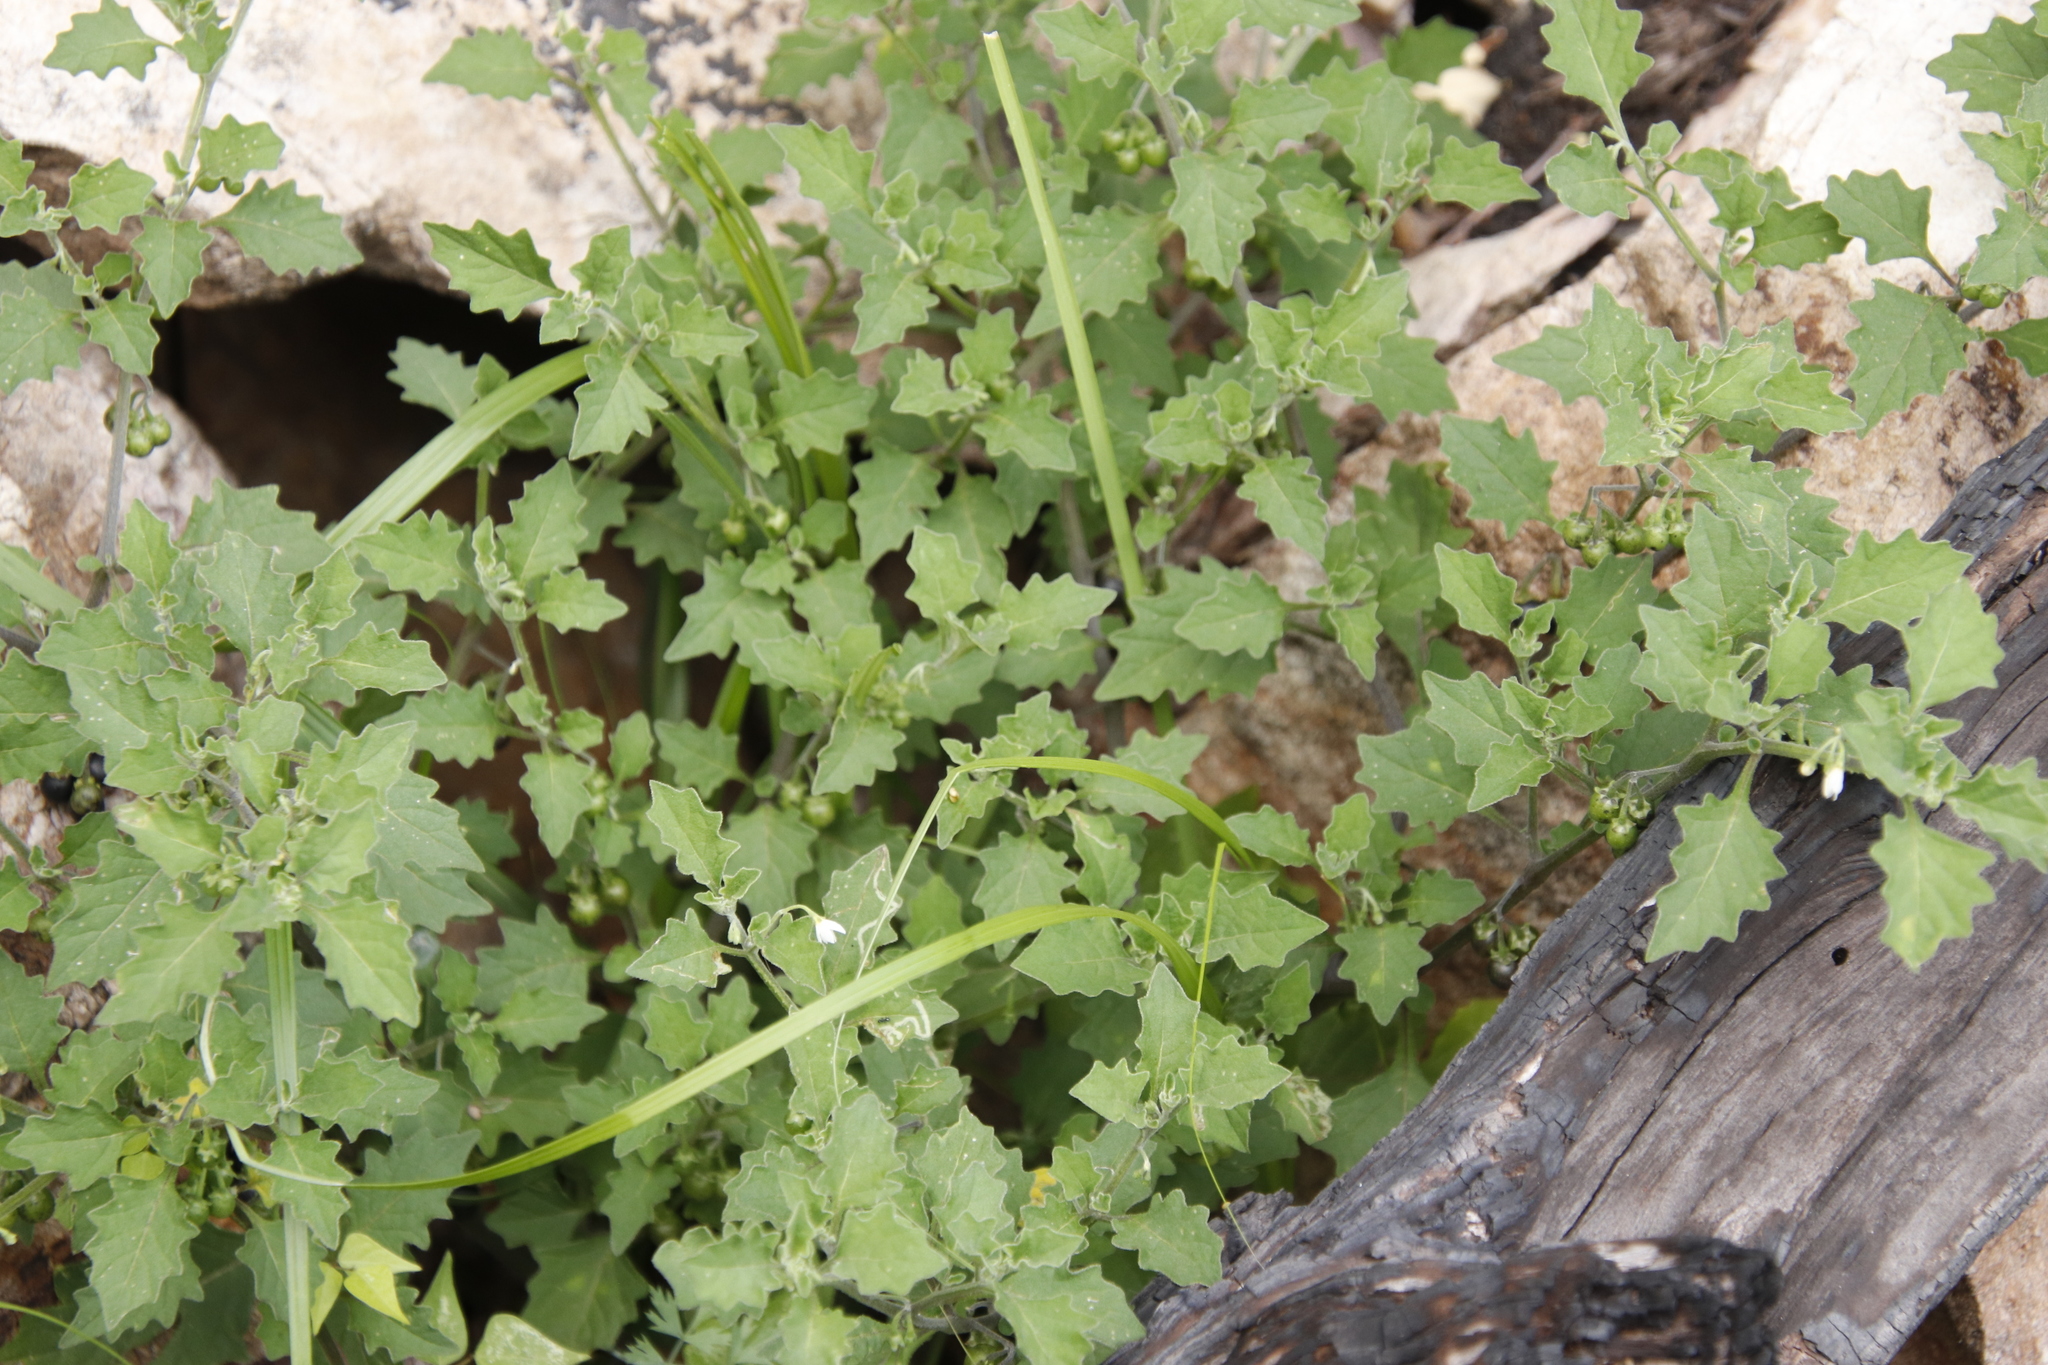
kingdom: Plantae
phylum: Tracheophyta
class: Magnoliopsida
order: Solanales
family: Solanaceae
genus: Solanum
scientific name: Solanum retroflexum
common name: Wonderberry
